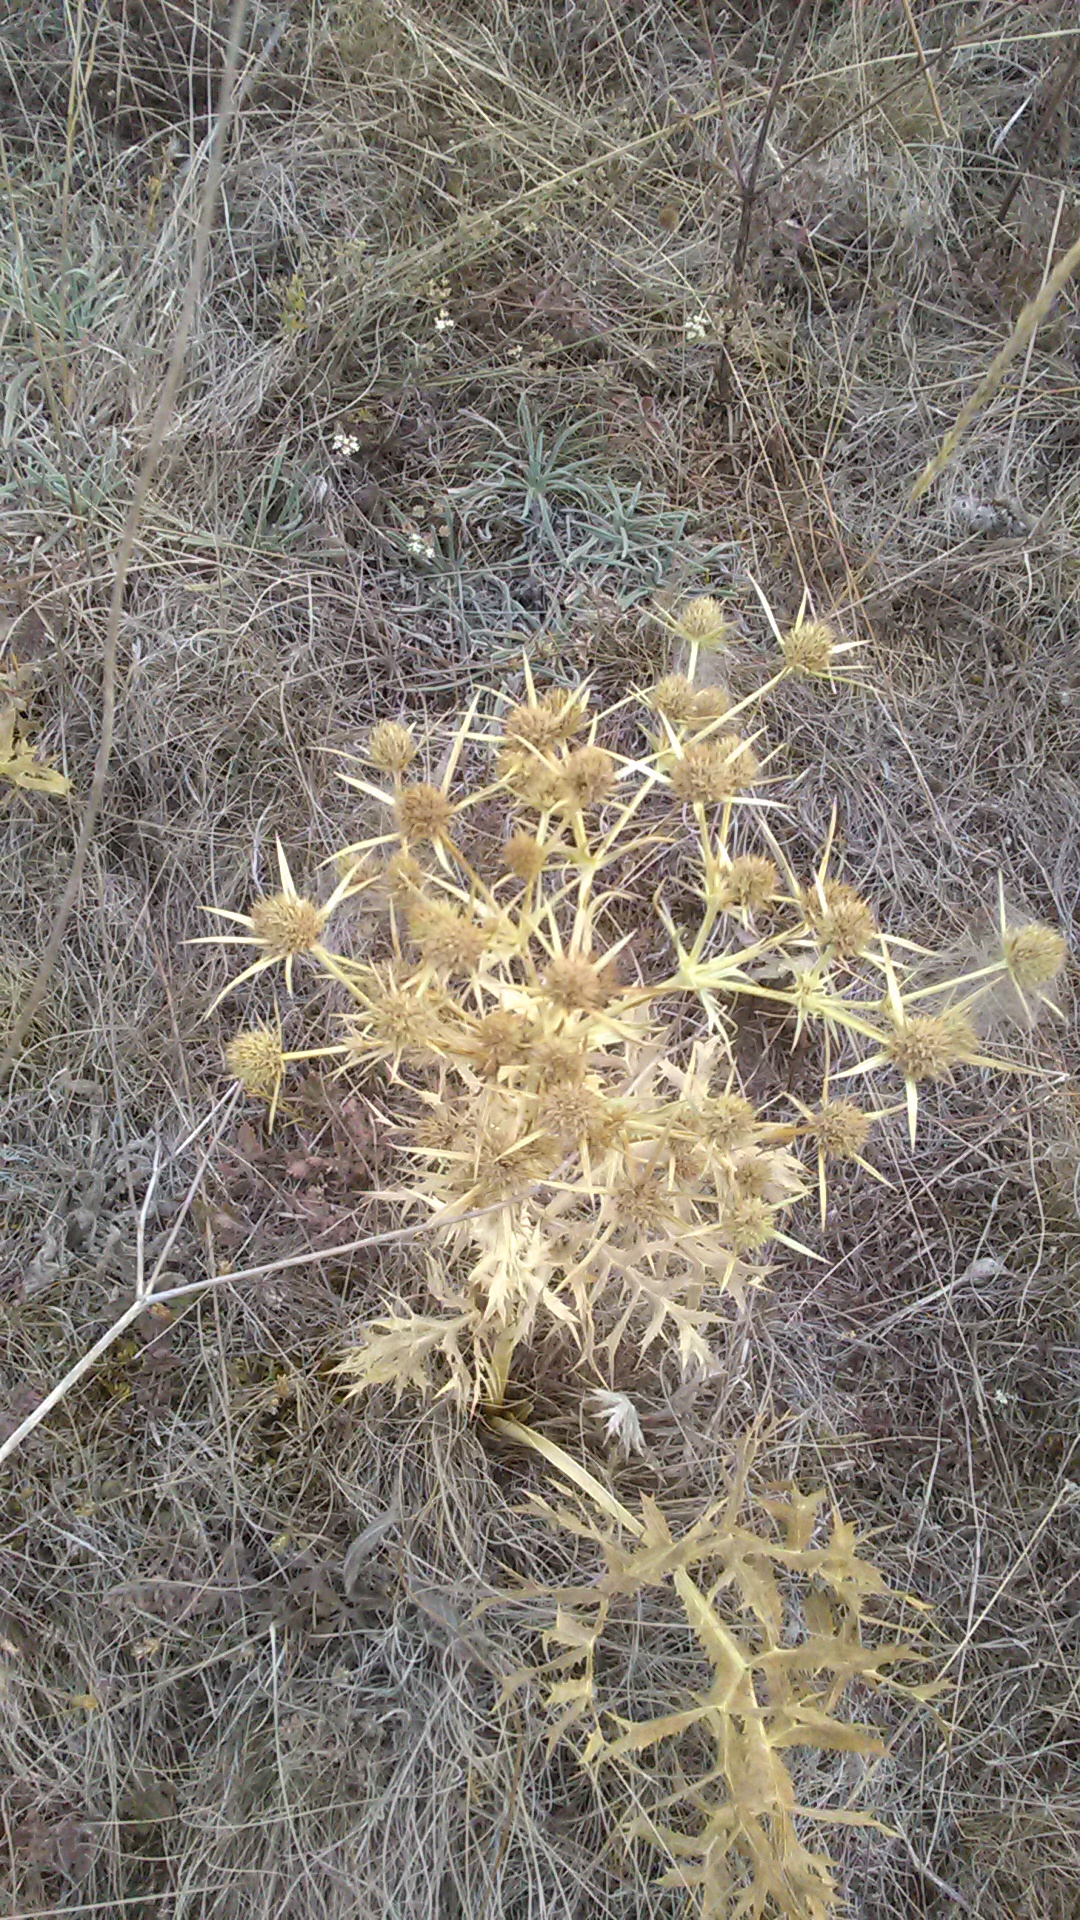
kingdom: Plantae
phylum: Tracheophyta
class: Magnoliopsida
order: Apiales
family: Apiaceae
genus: Eryngium
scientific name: Eryngium campestre
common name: Field eryngo
